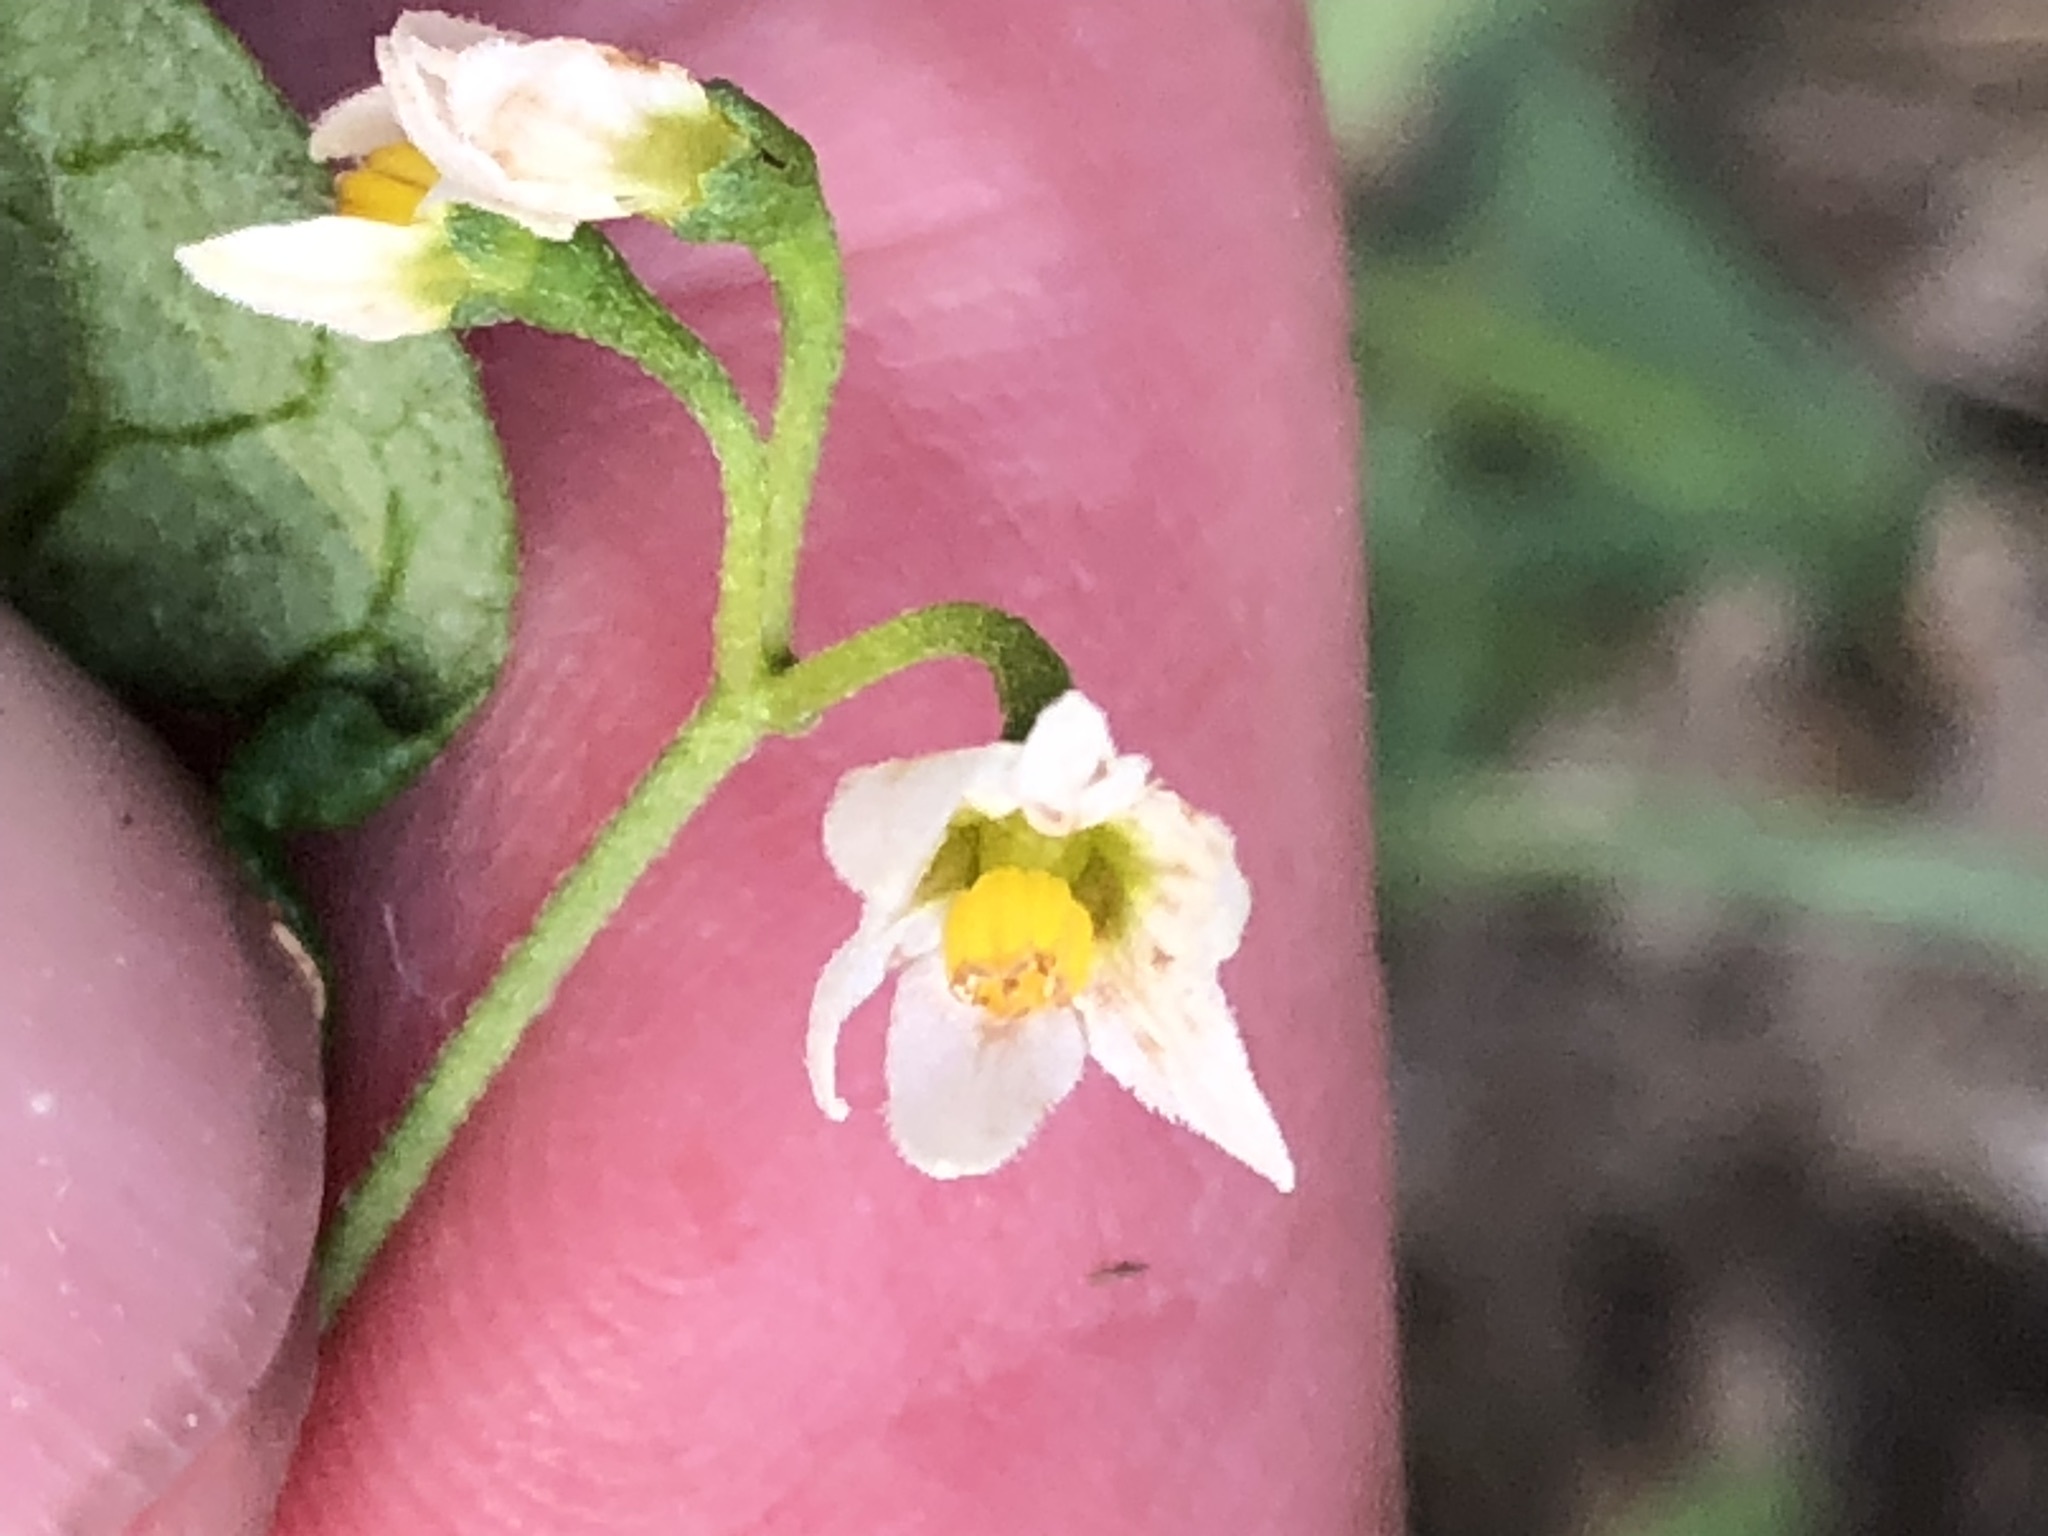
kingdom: Plantae
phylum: Tracheophyta
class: Magnoliopsida
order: Solanales
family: Solanaceae
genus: Solanum
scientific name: Solanum americanum
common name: American black nightshade
